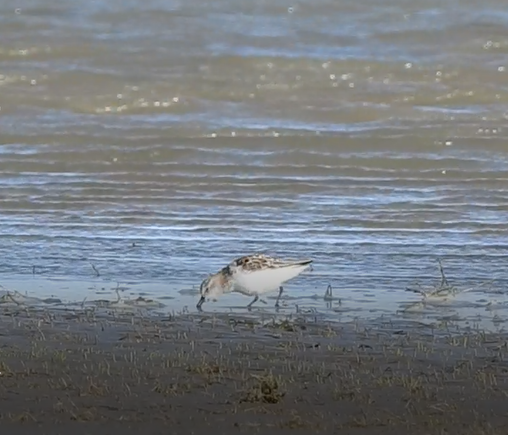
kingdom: Animalia
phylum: Chordata
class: Aves
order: Charadriiformes
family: Scolopacidae
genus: Calidris
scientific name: Calidris minuta
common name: Little stint
